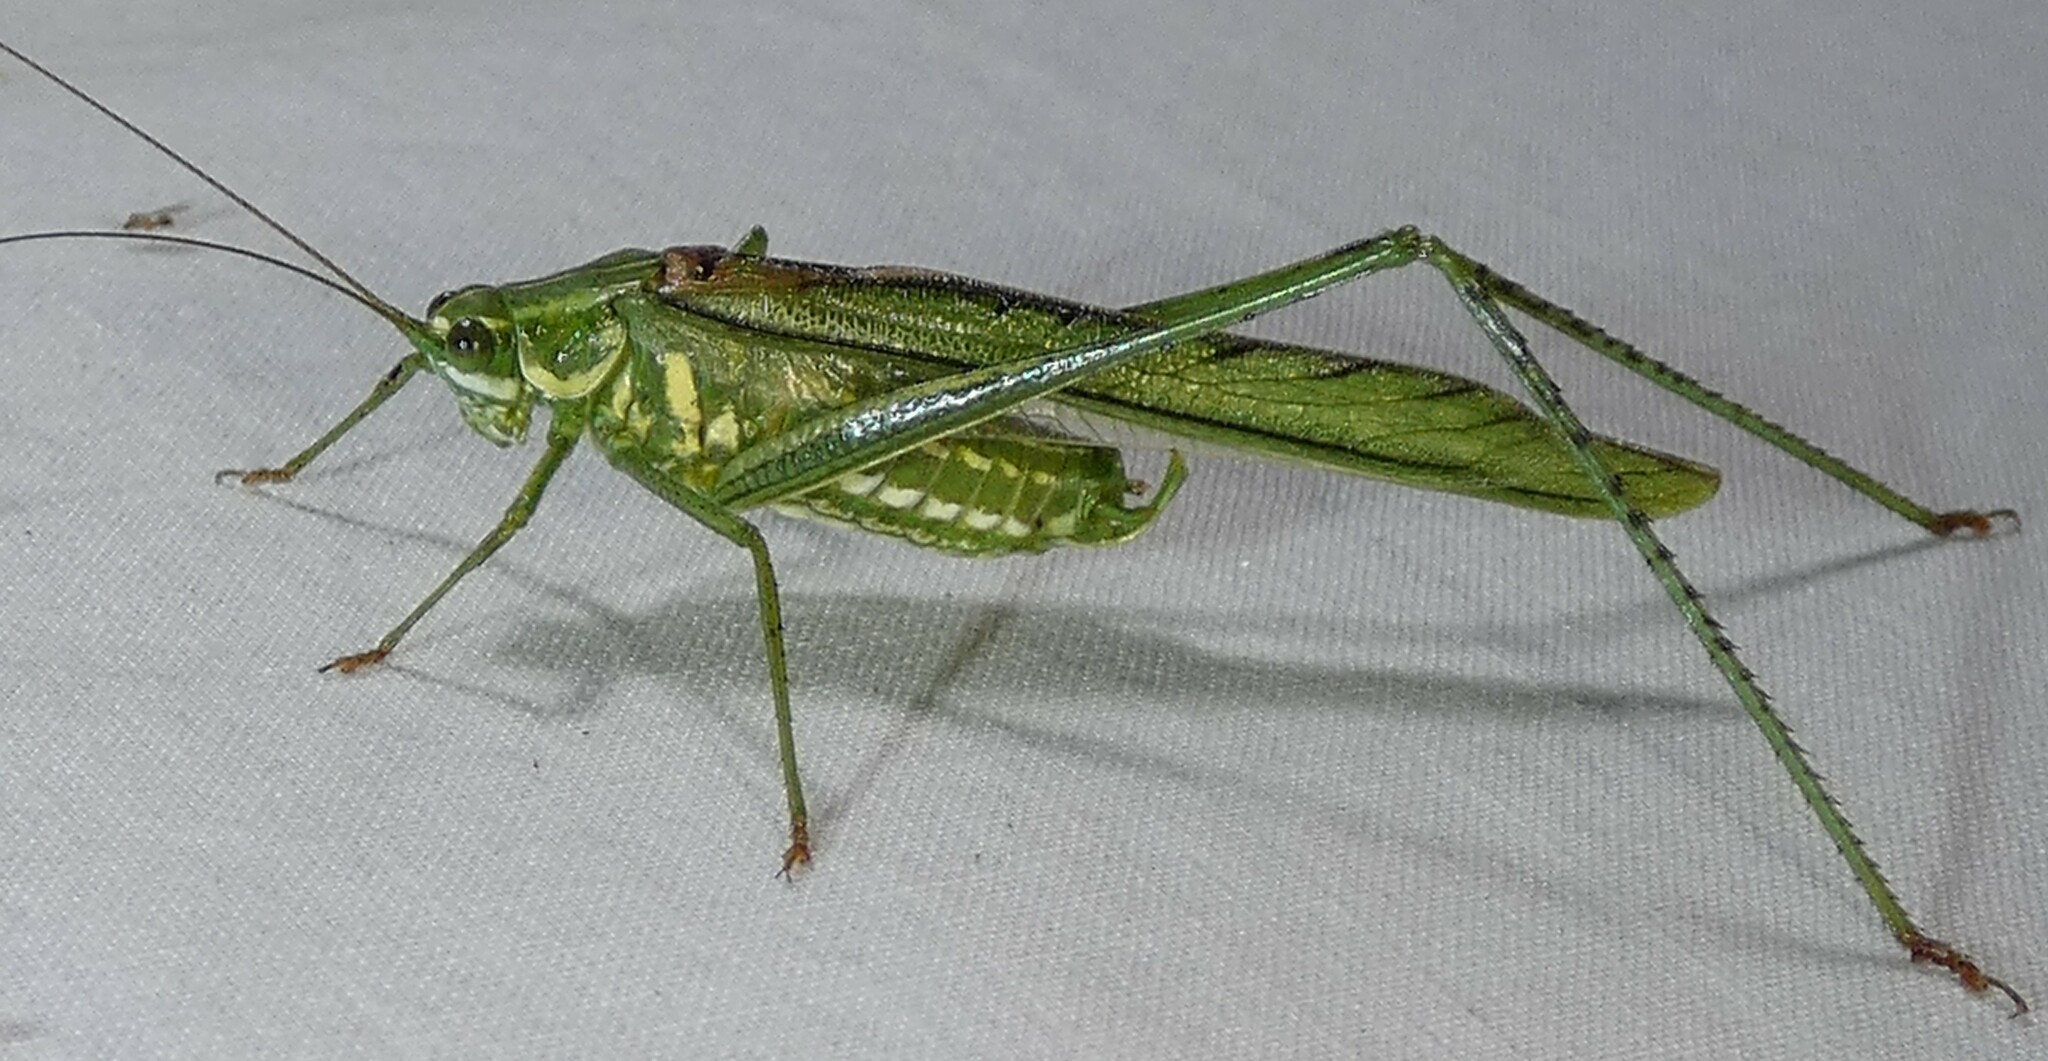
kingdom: Animalia
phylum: Arthropoda
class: Insecta
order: Orthoptera
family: Tettigoniidae
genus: Inscudderia
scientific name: Inscudderia walkeri
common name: Eastern cypress katydid
